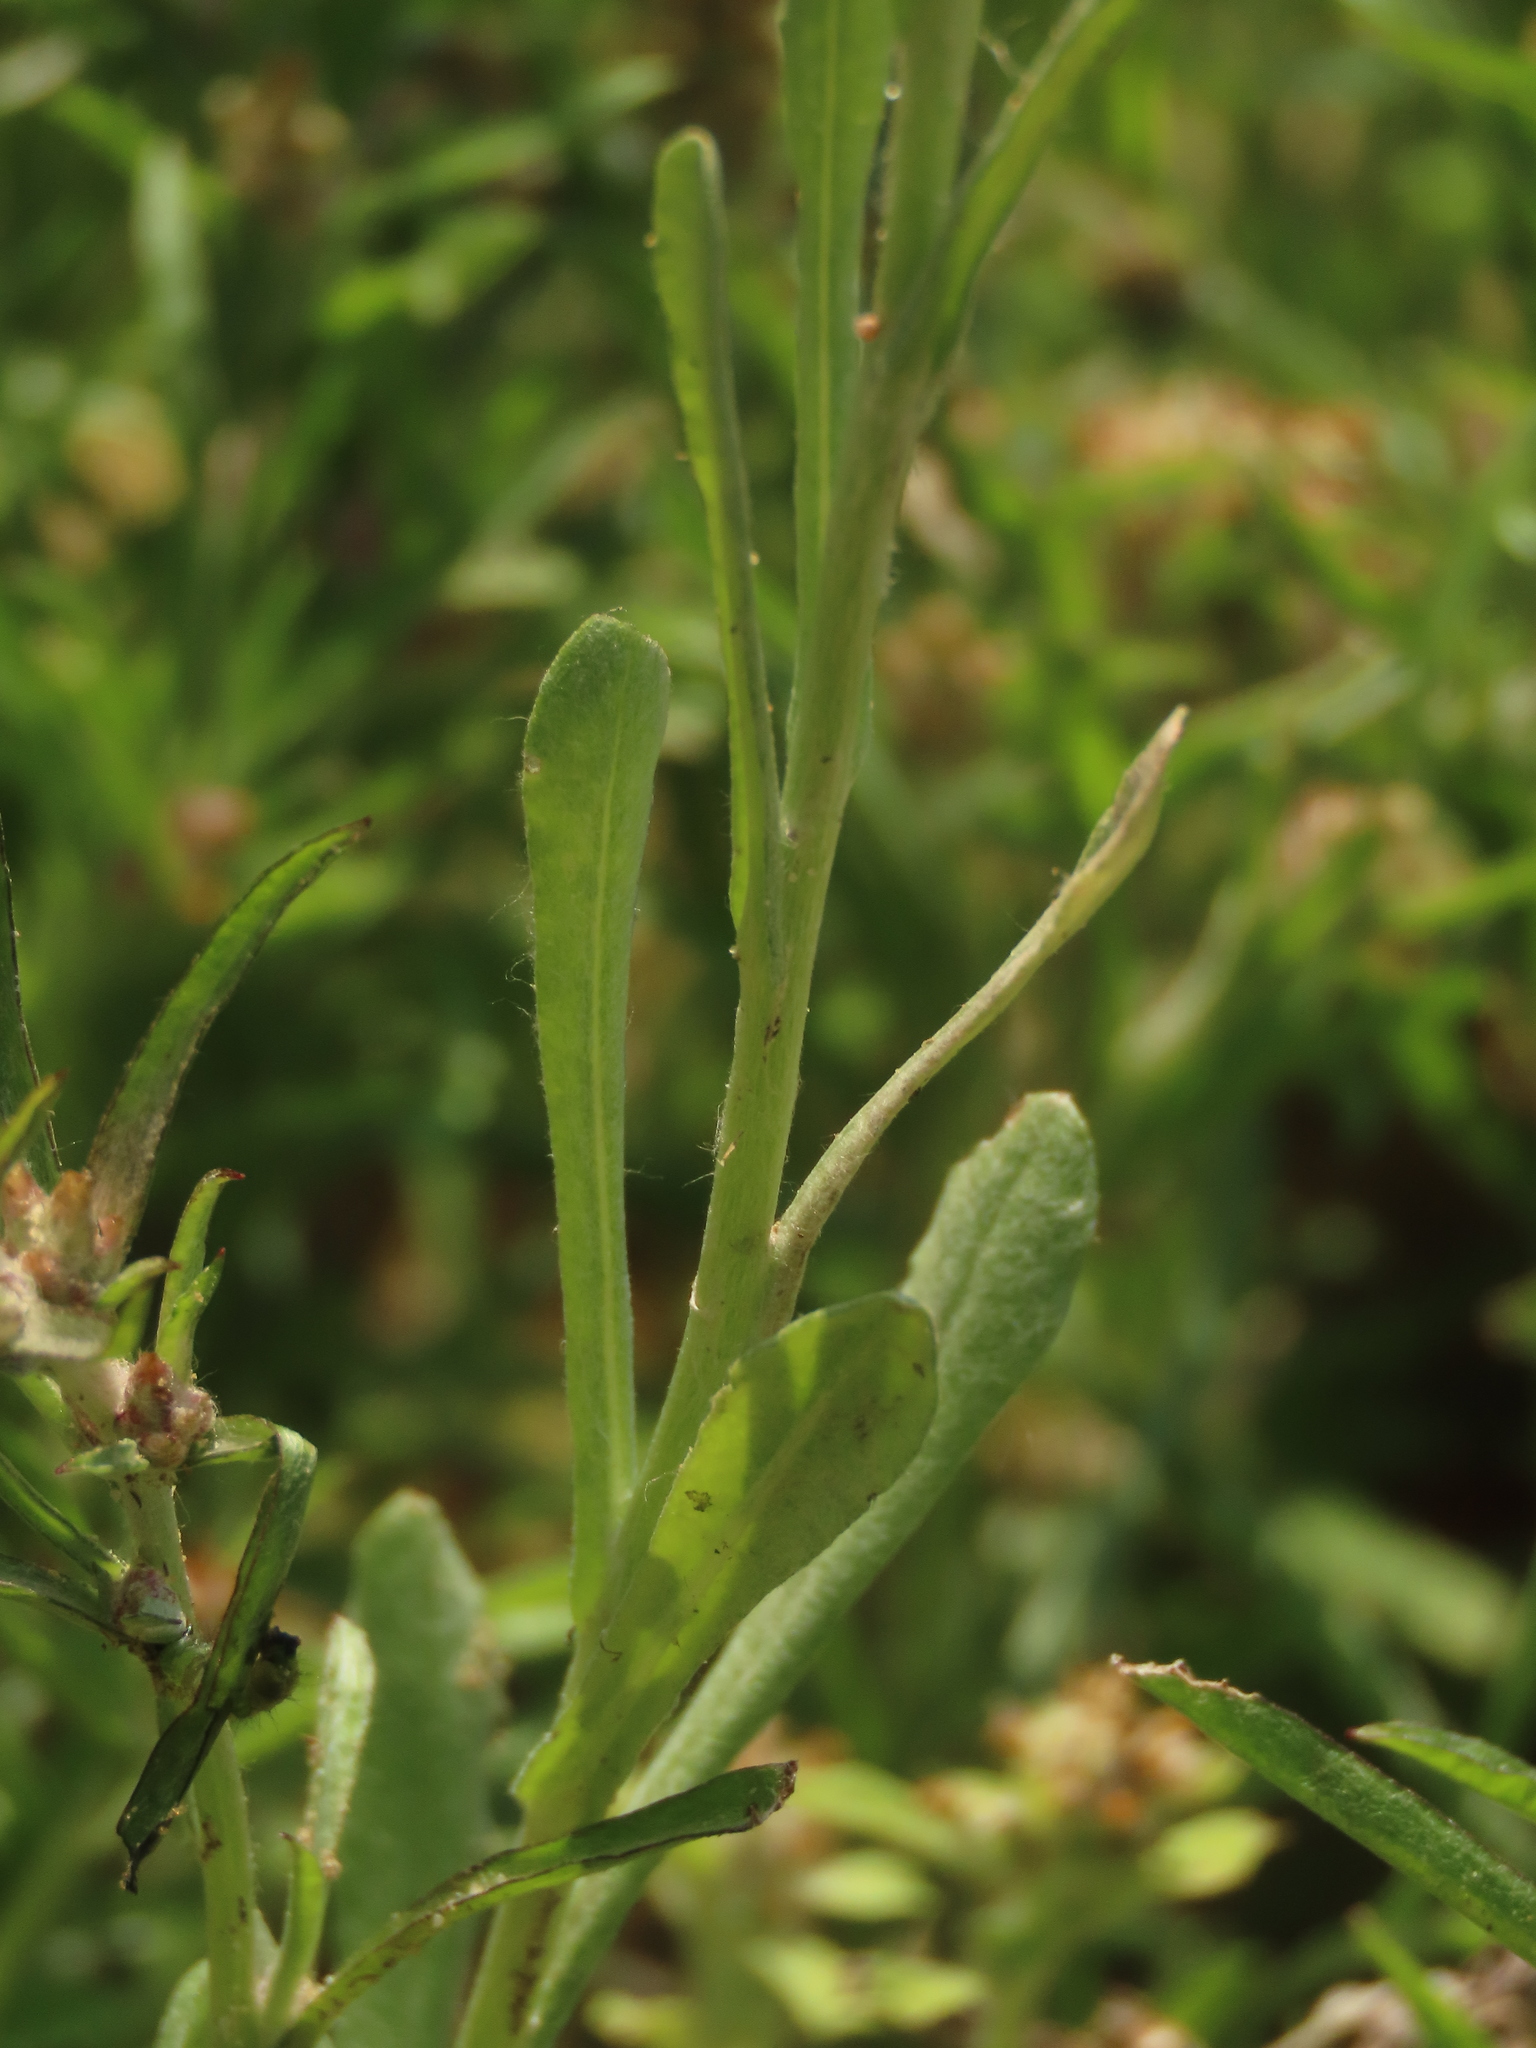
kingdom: Plantae
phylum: Tracheophyta
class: Magnoliopsida
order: Asterales
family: Asteraceae
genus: Pseudognaphalium
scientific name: Pseudognaphalium affine
